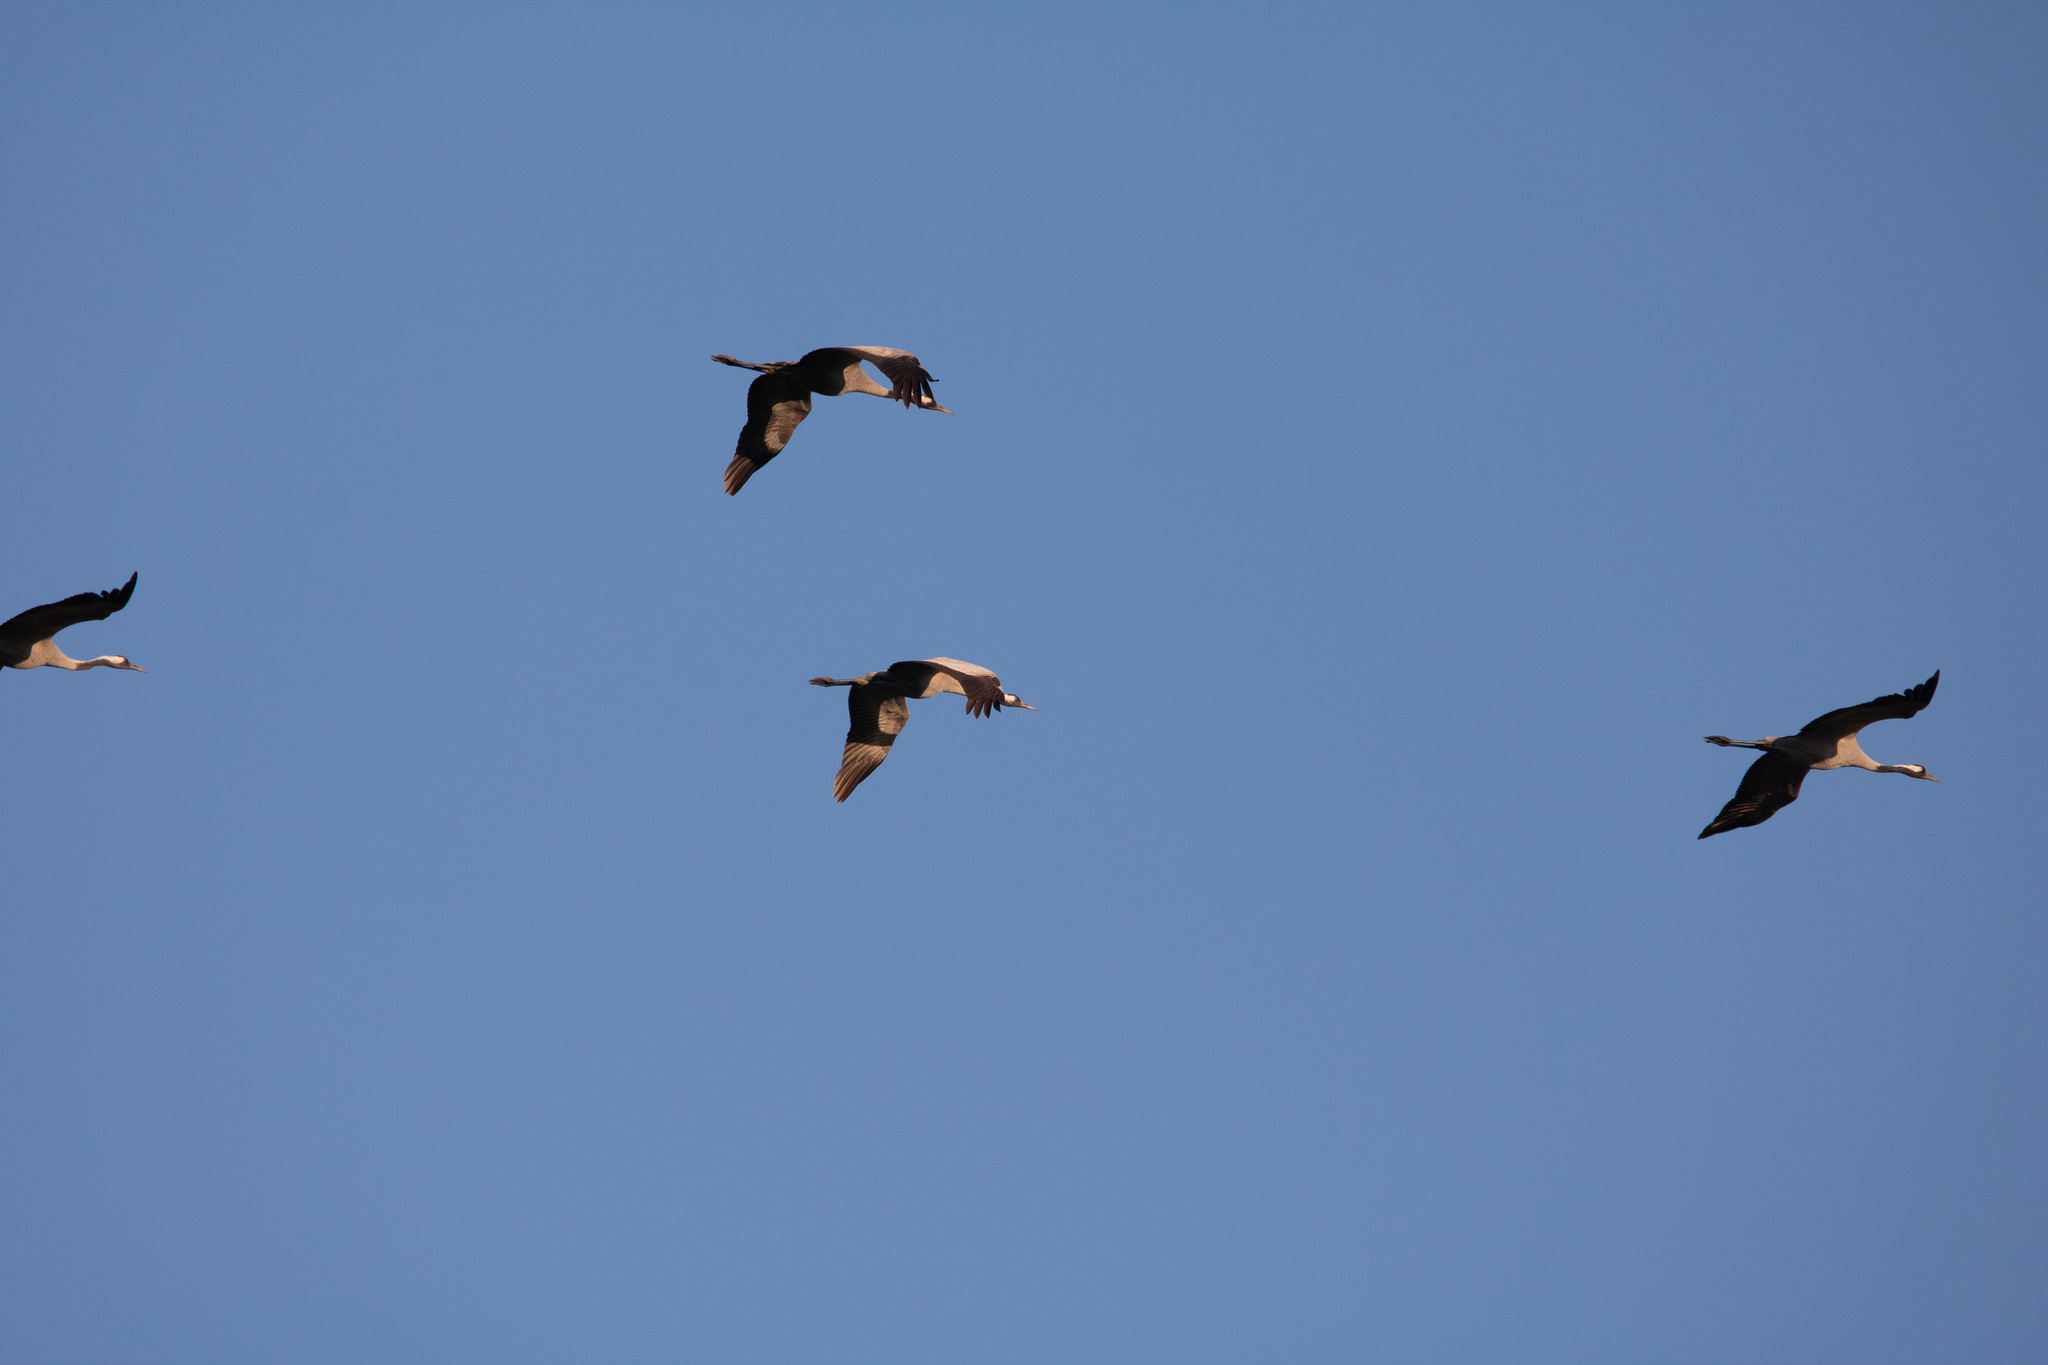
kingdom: Animalia
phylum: Chordata
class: Aves
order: Gruiformes
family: Gruidae
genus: Grus
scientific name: Grus grus
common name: Common crane
